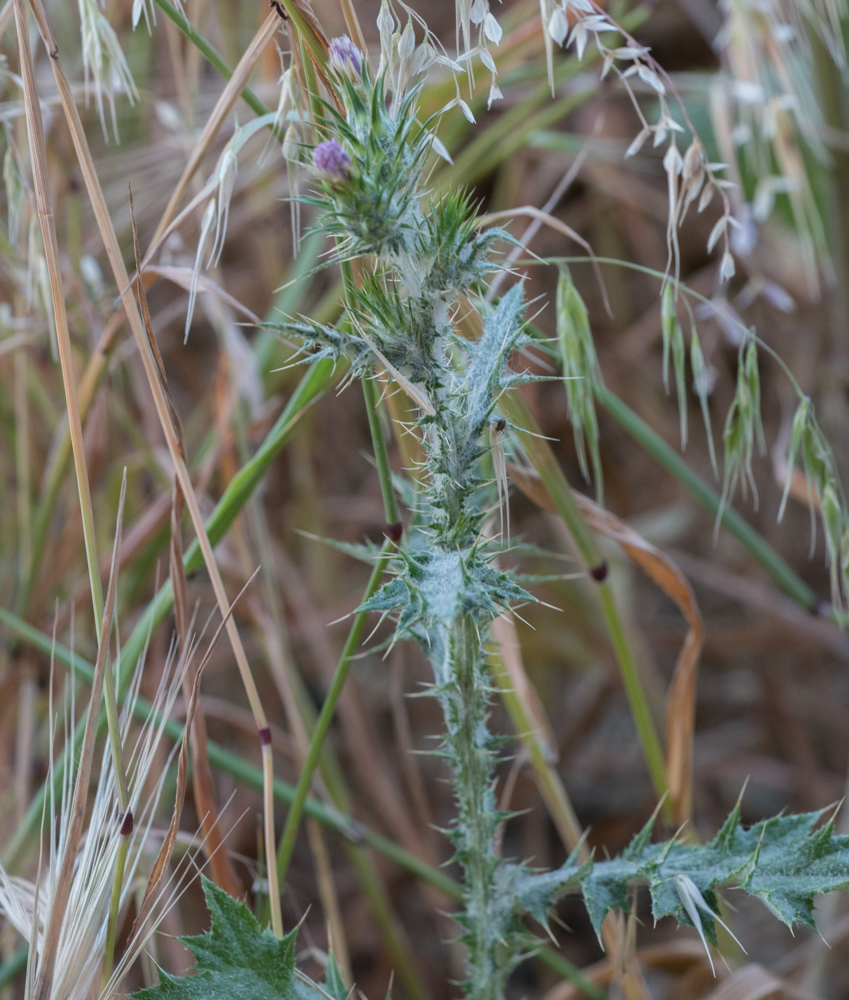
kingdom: Plantae
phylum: Tracheophyta
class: Magnoliopsida
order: Asterales
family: Asteraceae
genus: Carduus
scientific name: Carduus pycnocephalus
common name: Plymouth thistle
